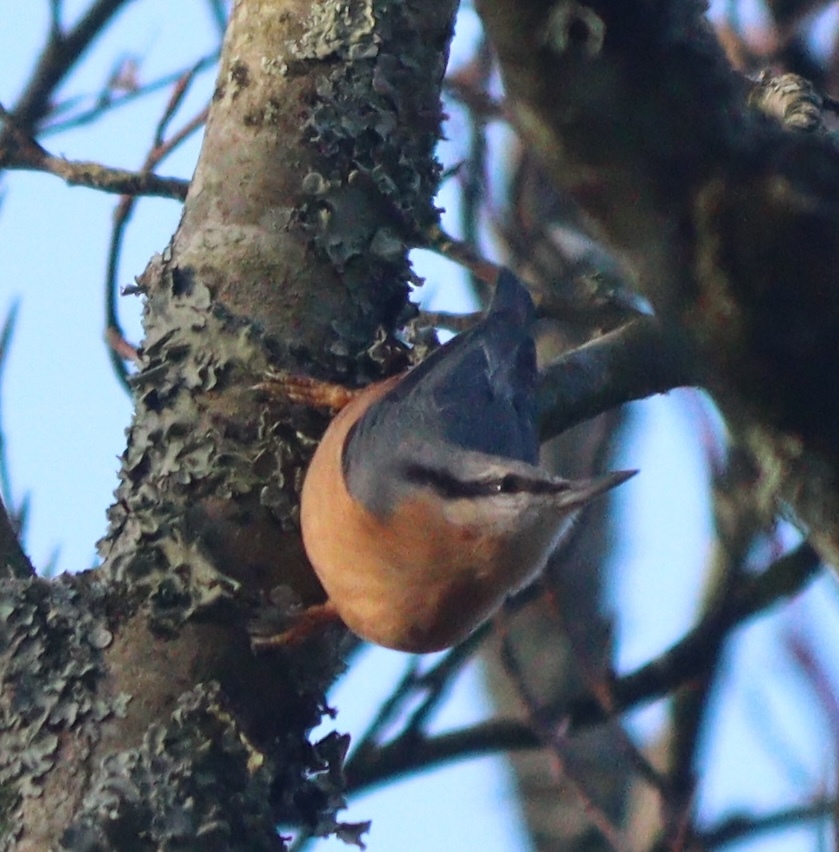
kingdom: Animalia
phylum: Chordata
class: Aves
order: Passeriformes
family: Sittidae
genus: Sitta
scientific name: Sitta europaea
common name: Eurasian nuthatch
